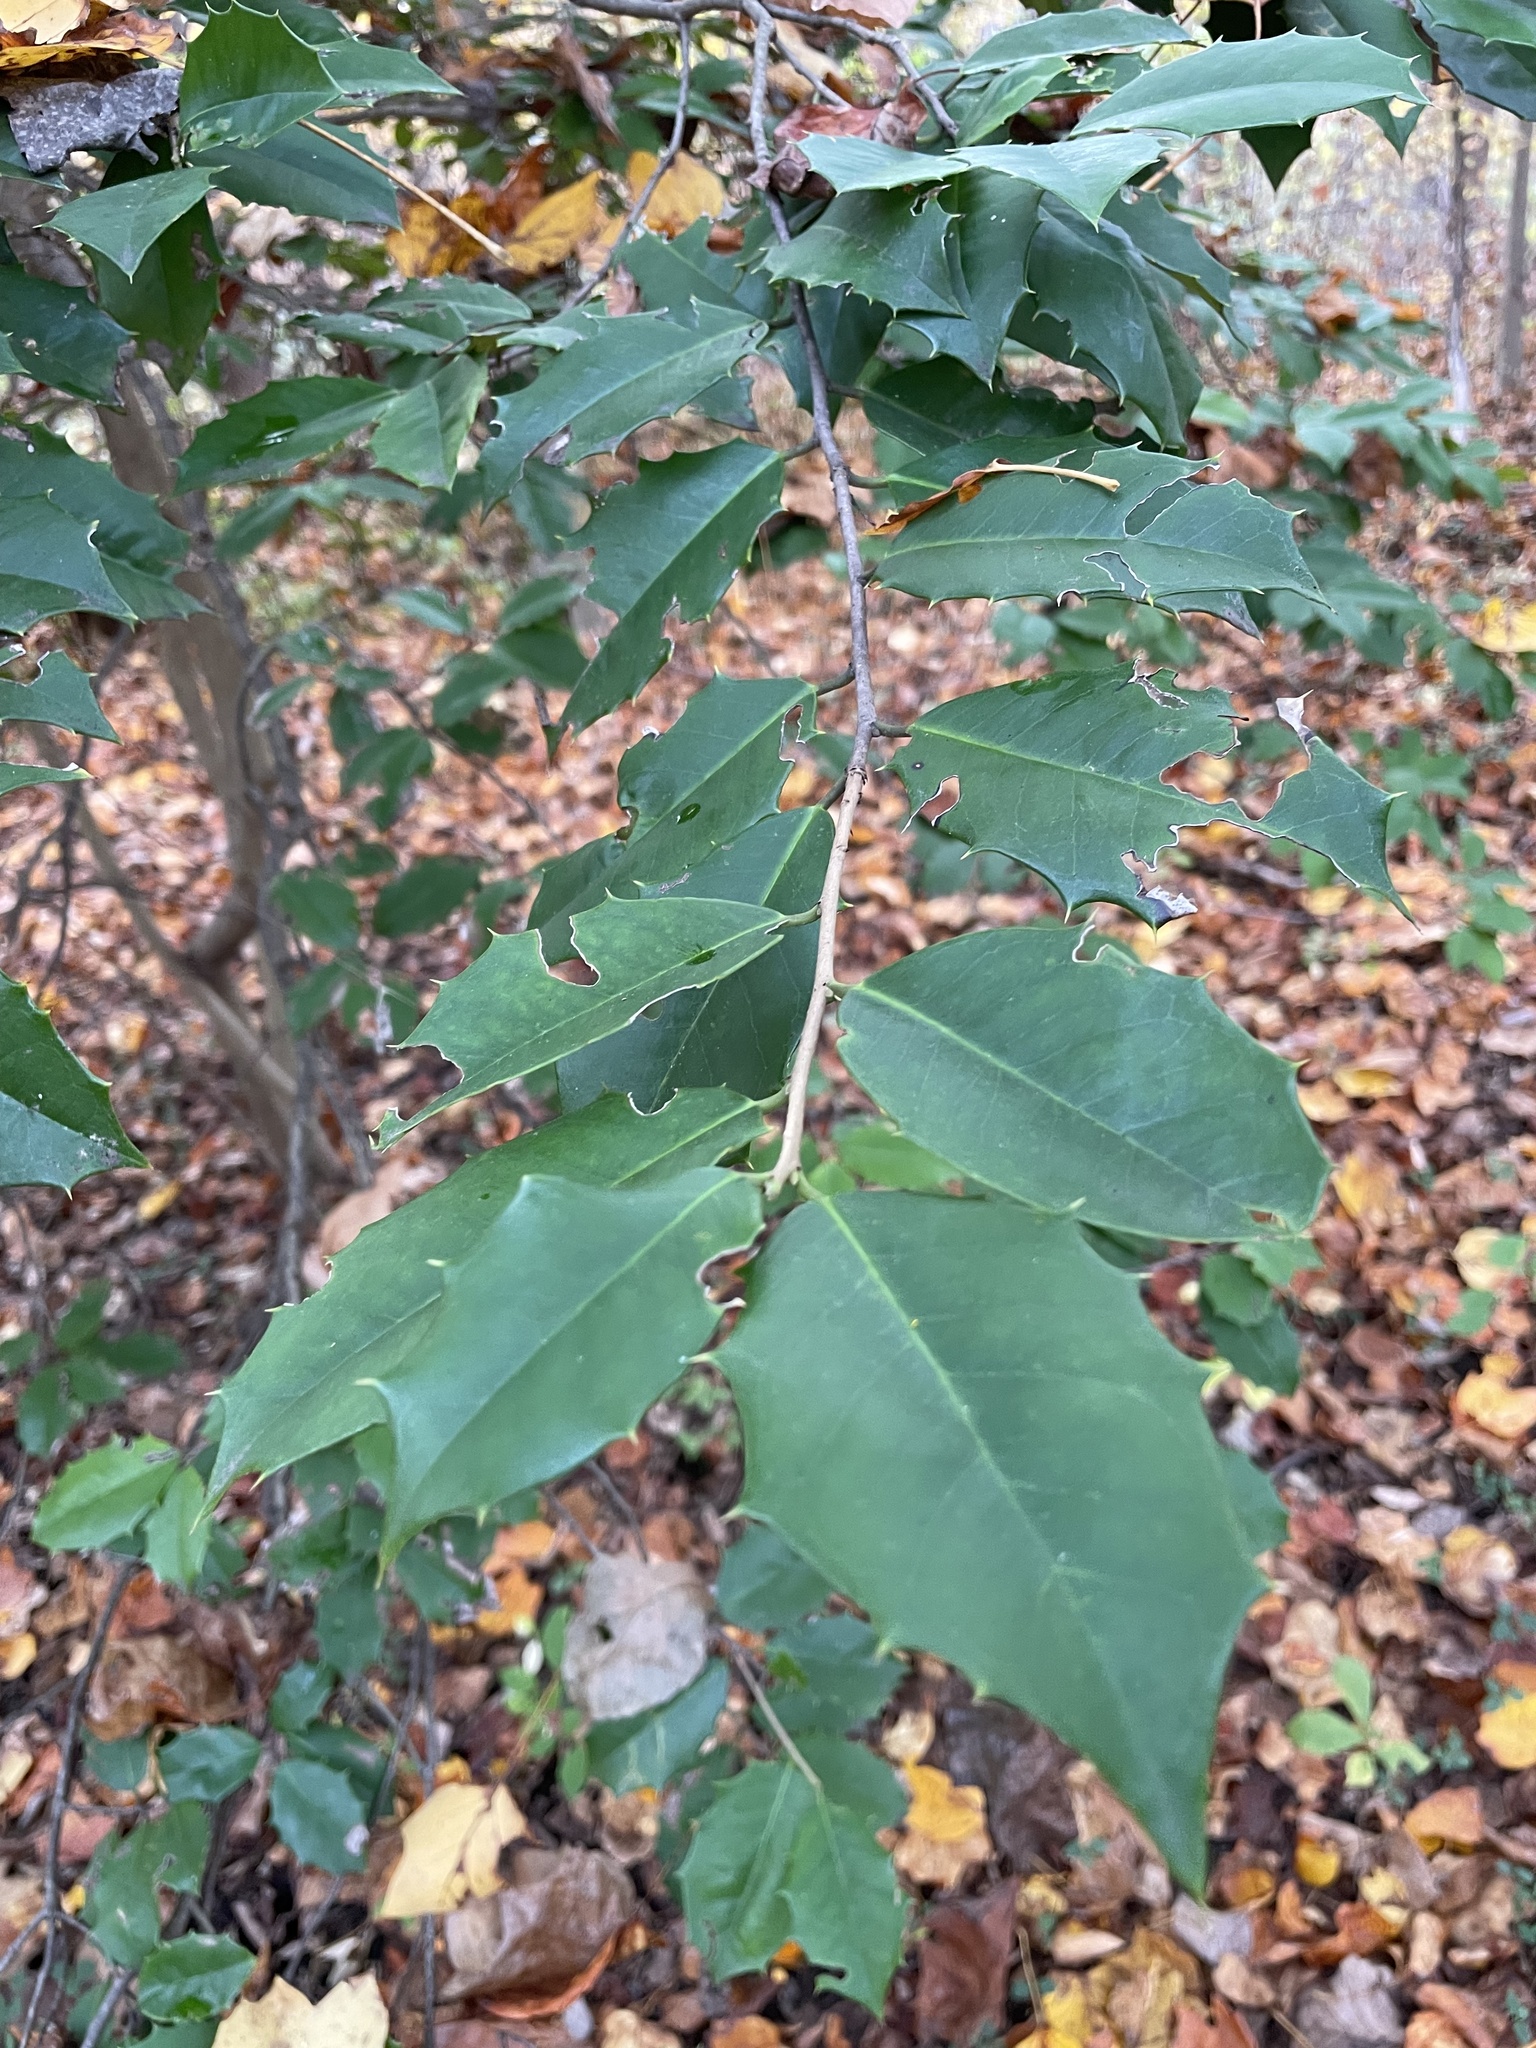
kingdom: Plantae
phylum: Tracheophyta
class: Magnoliopsida
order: Aquifoliales
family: Aquifoliaceae
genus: Ilex
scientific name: Ilex opaca
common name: American holly
